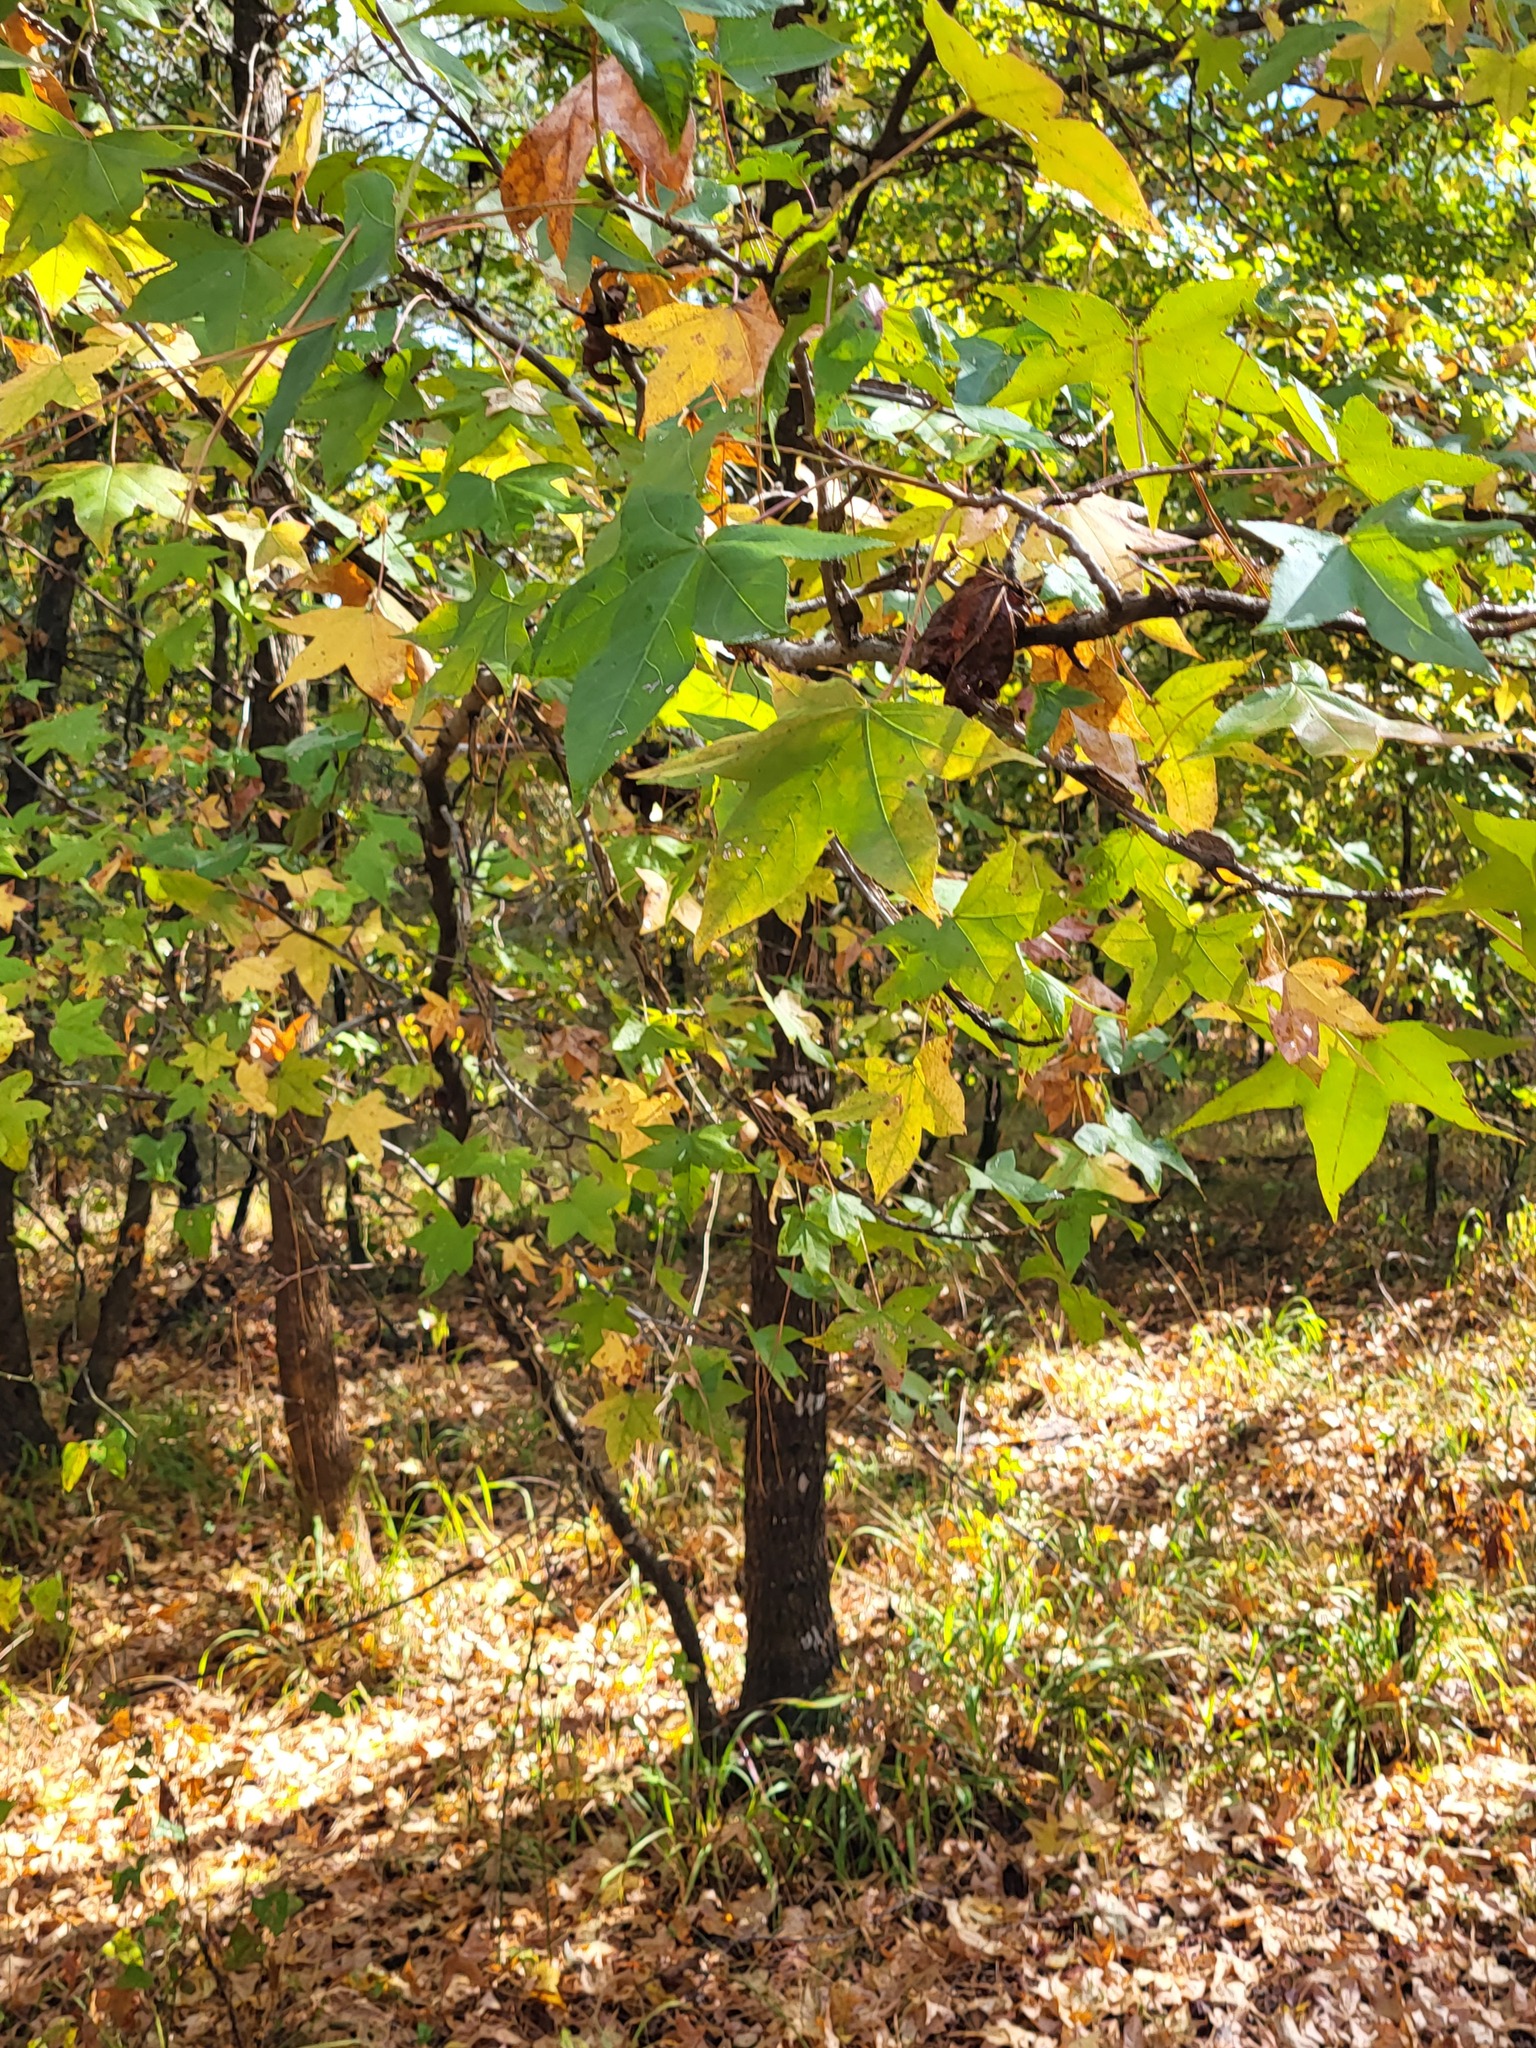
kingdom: Plantae
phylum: Tracheophyta
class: Magnoliopsida
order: Saxifragales
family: Altingiaceae
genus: Liquidambar
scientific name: Liquidambar styraciflua
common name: Sweet gum
